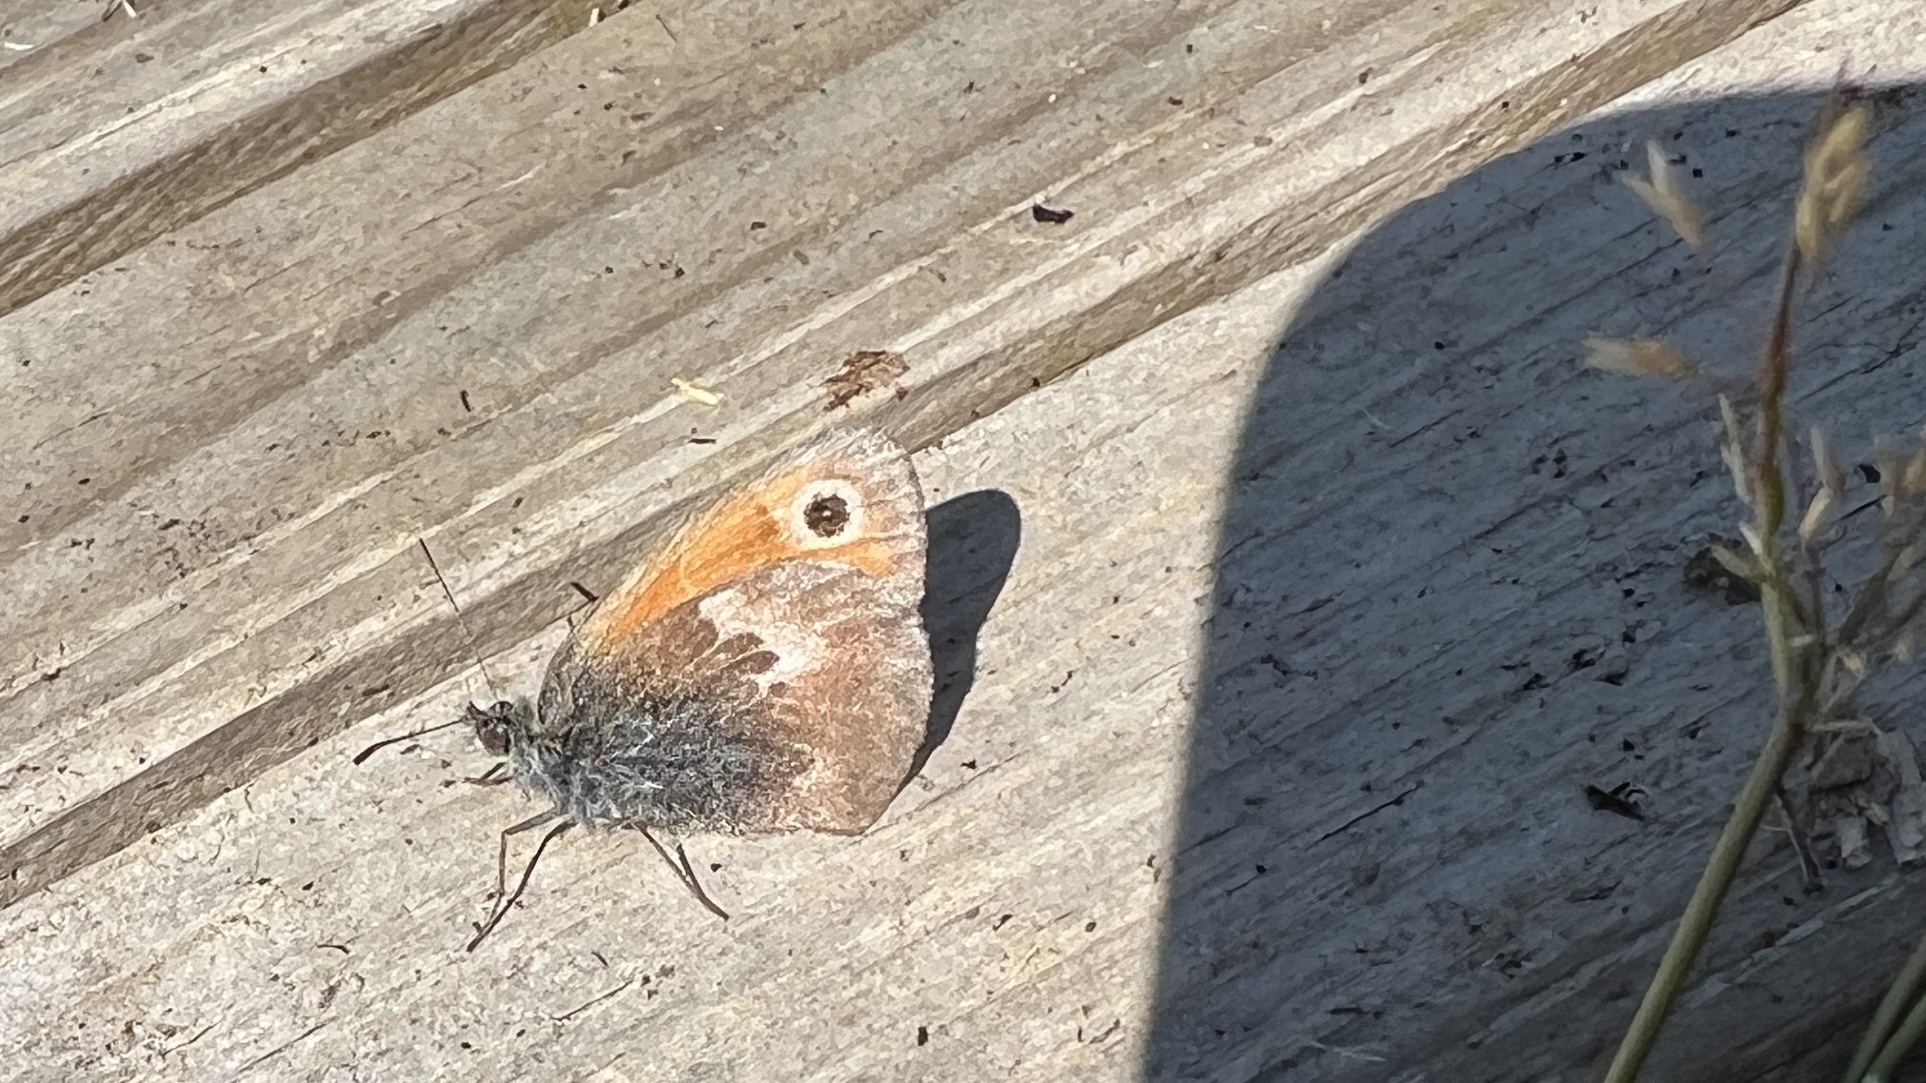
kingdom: Animalia
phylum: Arthropoda
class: Insecta
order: Lepidoptera
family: Nymphalidae
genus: Coenonympha
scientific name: Coenonympha pamphilus
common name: Small heath
